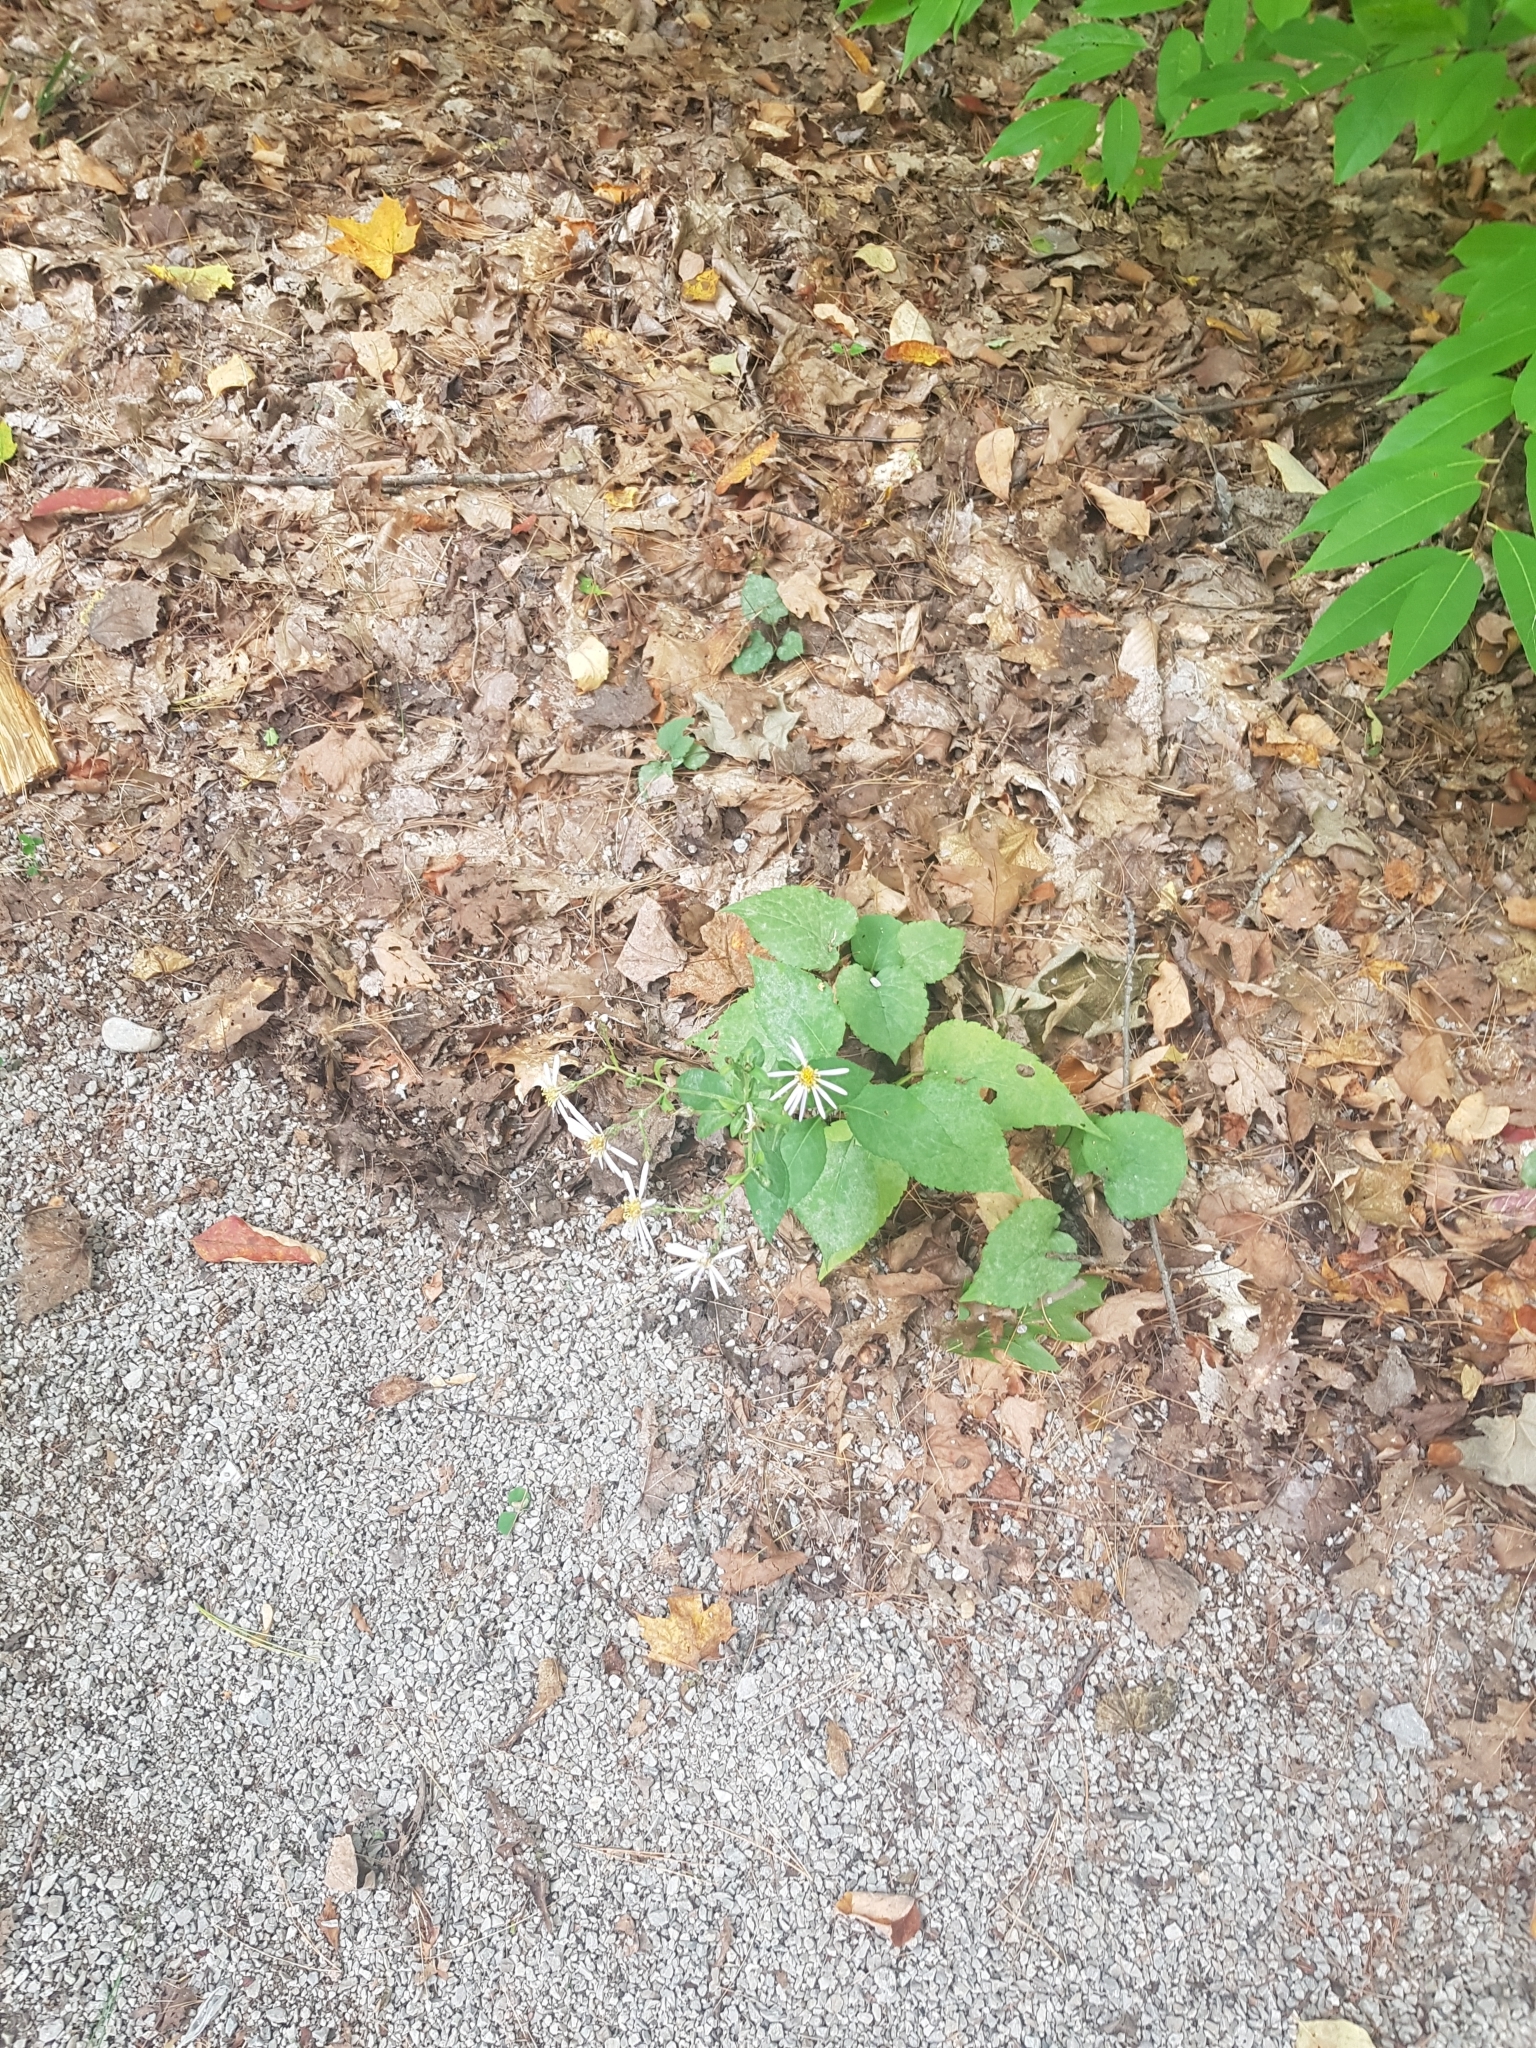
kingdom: Plantae
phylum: Tracheophyta
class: Magnoliopsida
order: Asterales
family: Asteraceae
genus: Eurybia
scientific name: Eurybia macrophylla
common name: Big-leaved aster
